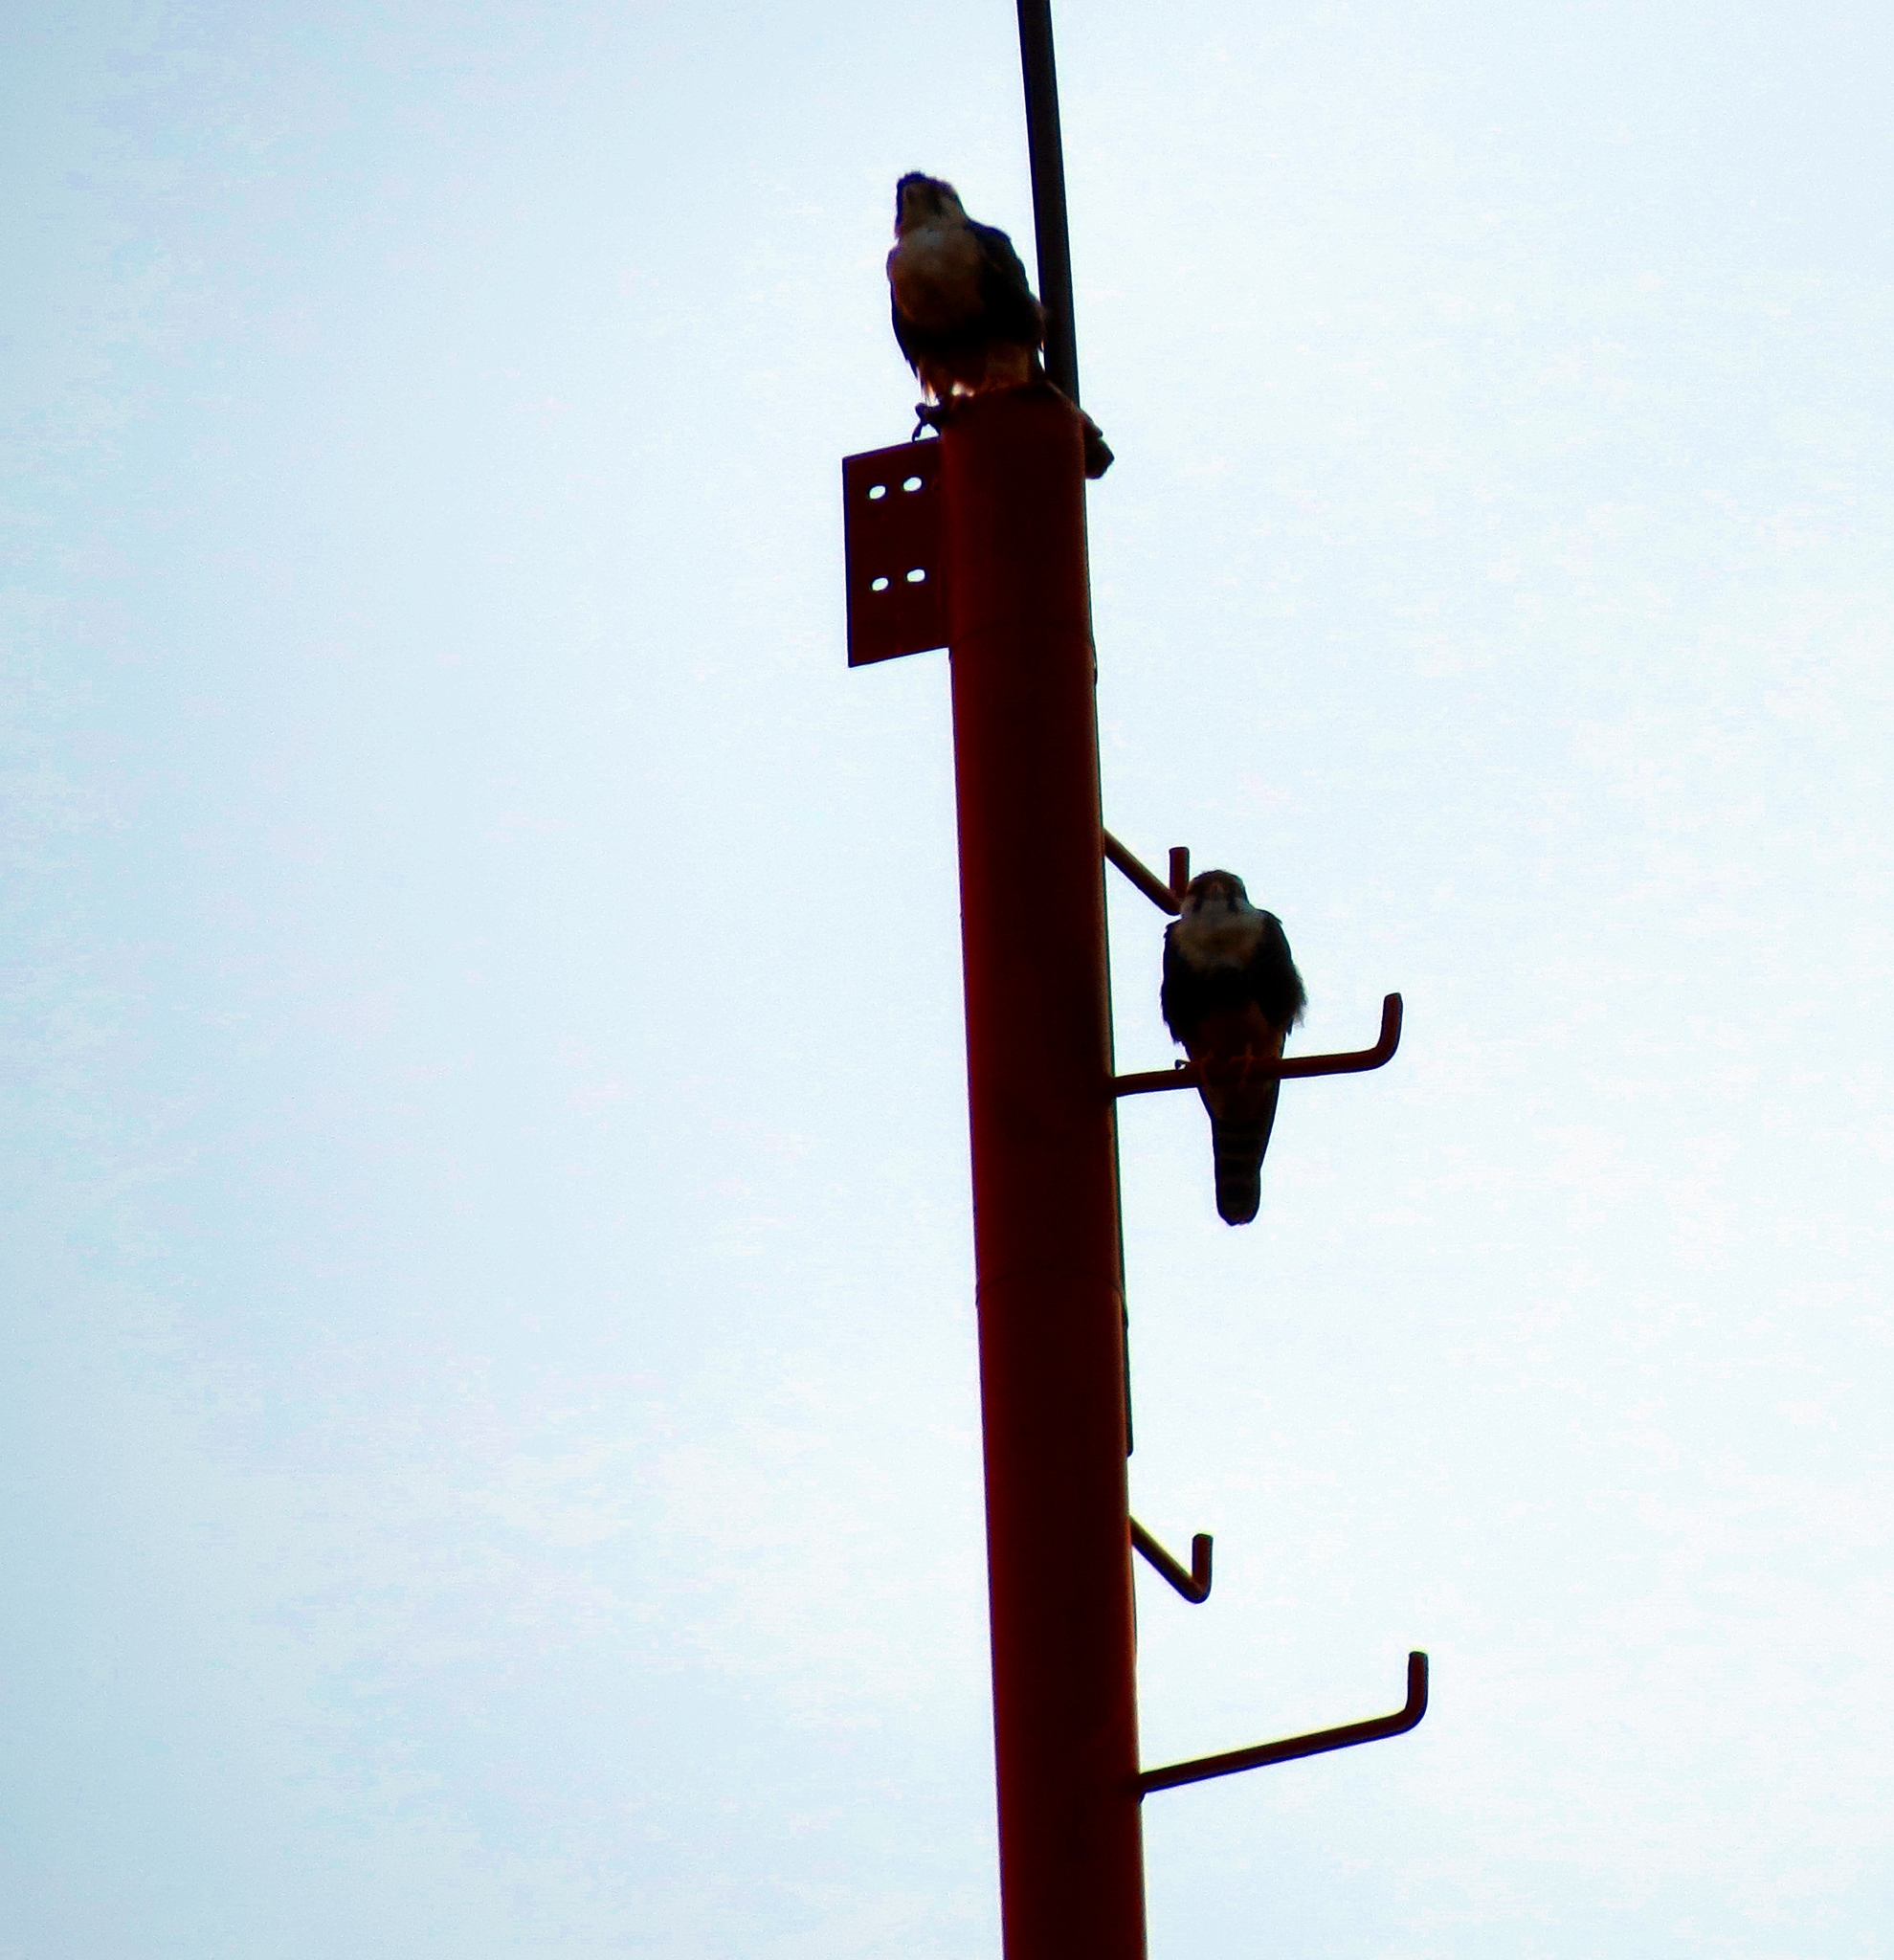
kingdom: Animalia
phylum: Chordata
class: Aves
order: Falconiformes
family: Falconidae
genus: Falco
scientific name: Falco femoralis
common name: Aplomado falcon
